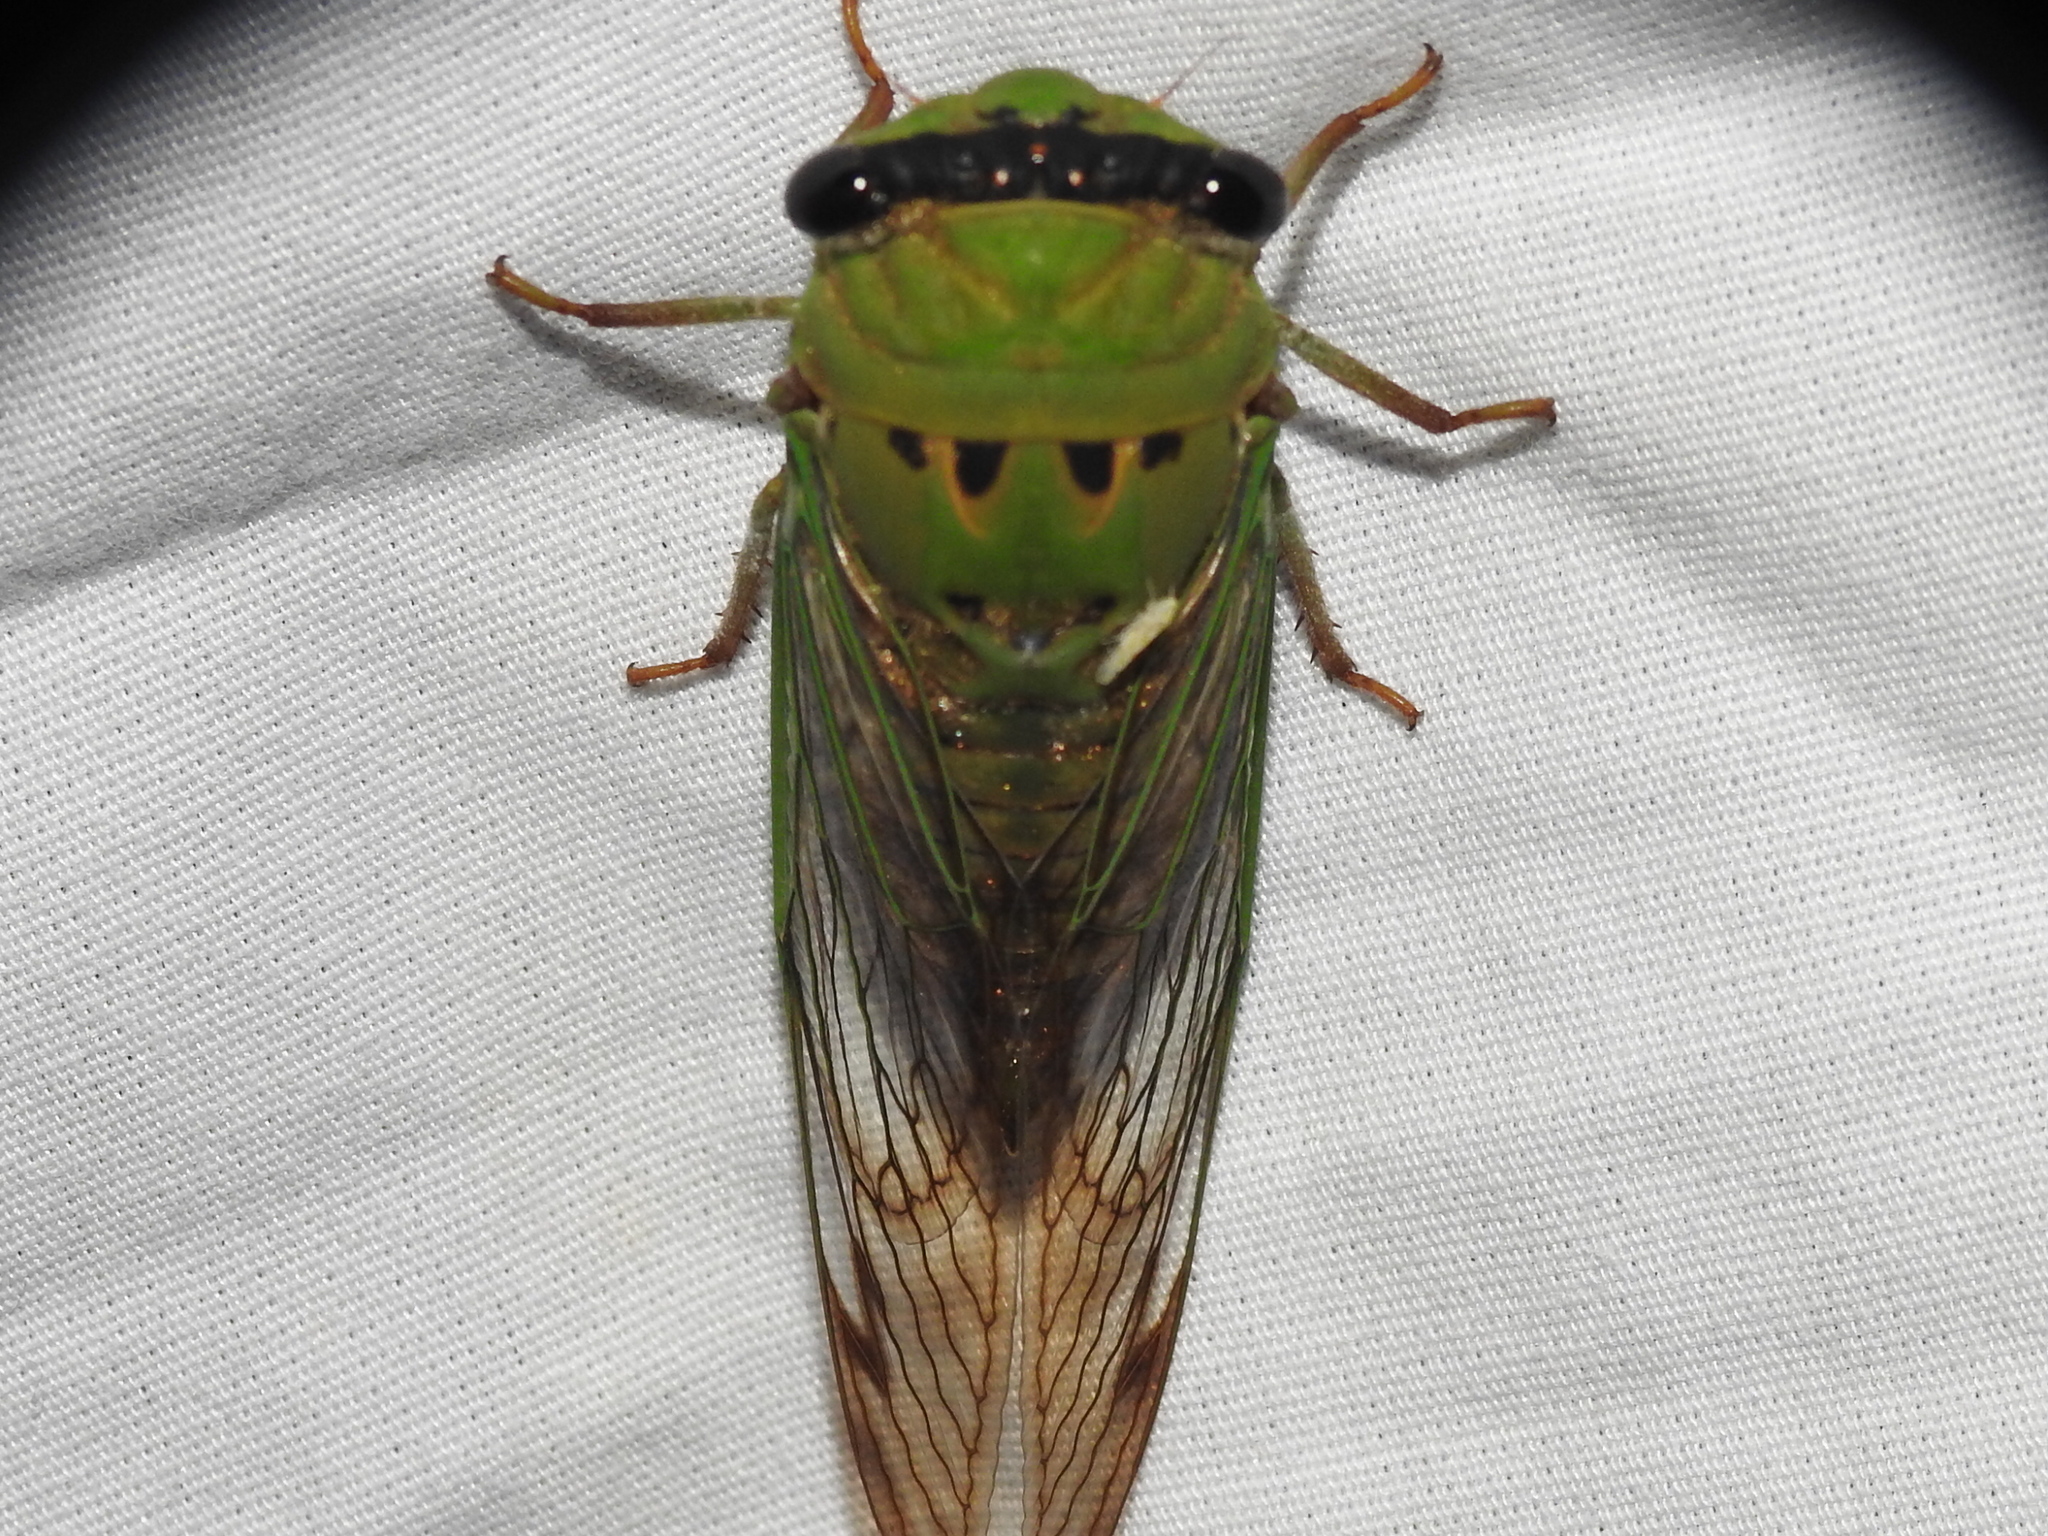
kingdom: Animalia
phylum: Arthropoda
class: Insecta
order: Hemiptera
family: Cicadidae
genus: Neotibicen
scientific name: Neotibicen superbus
